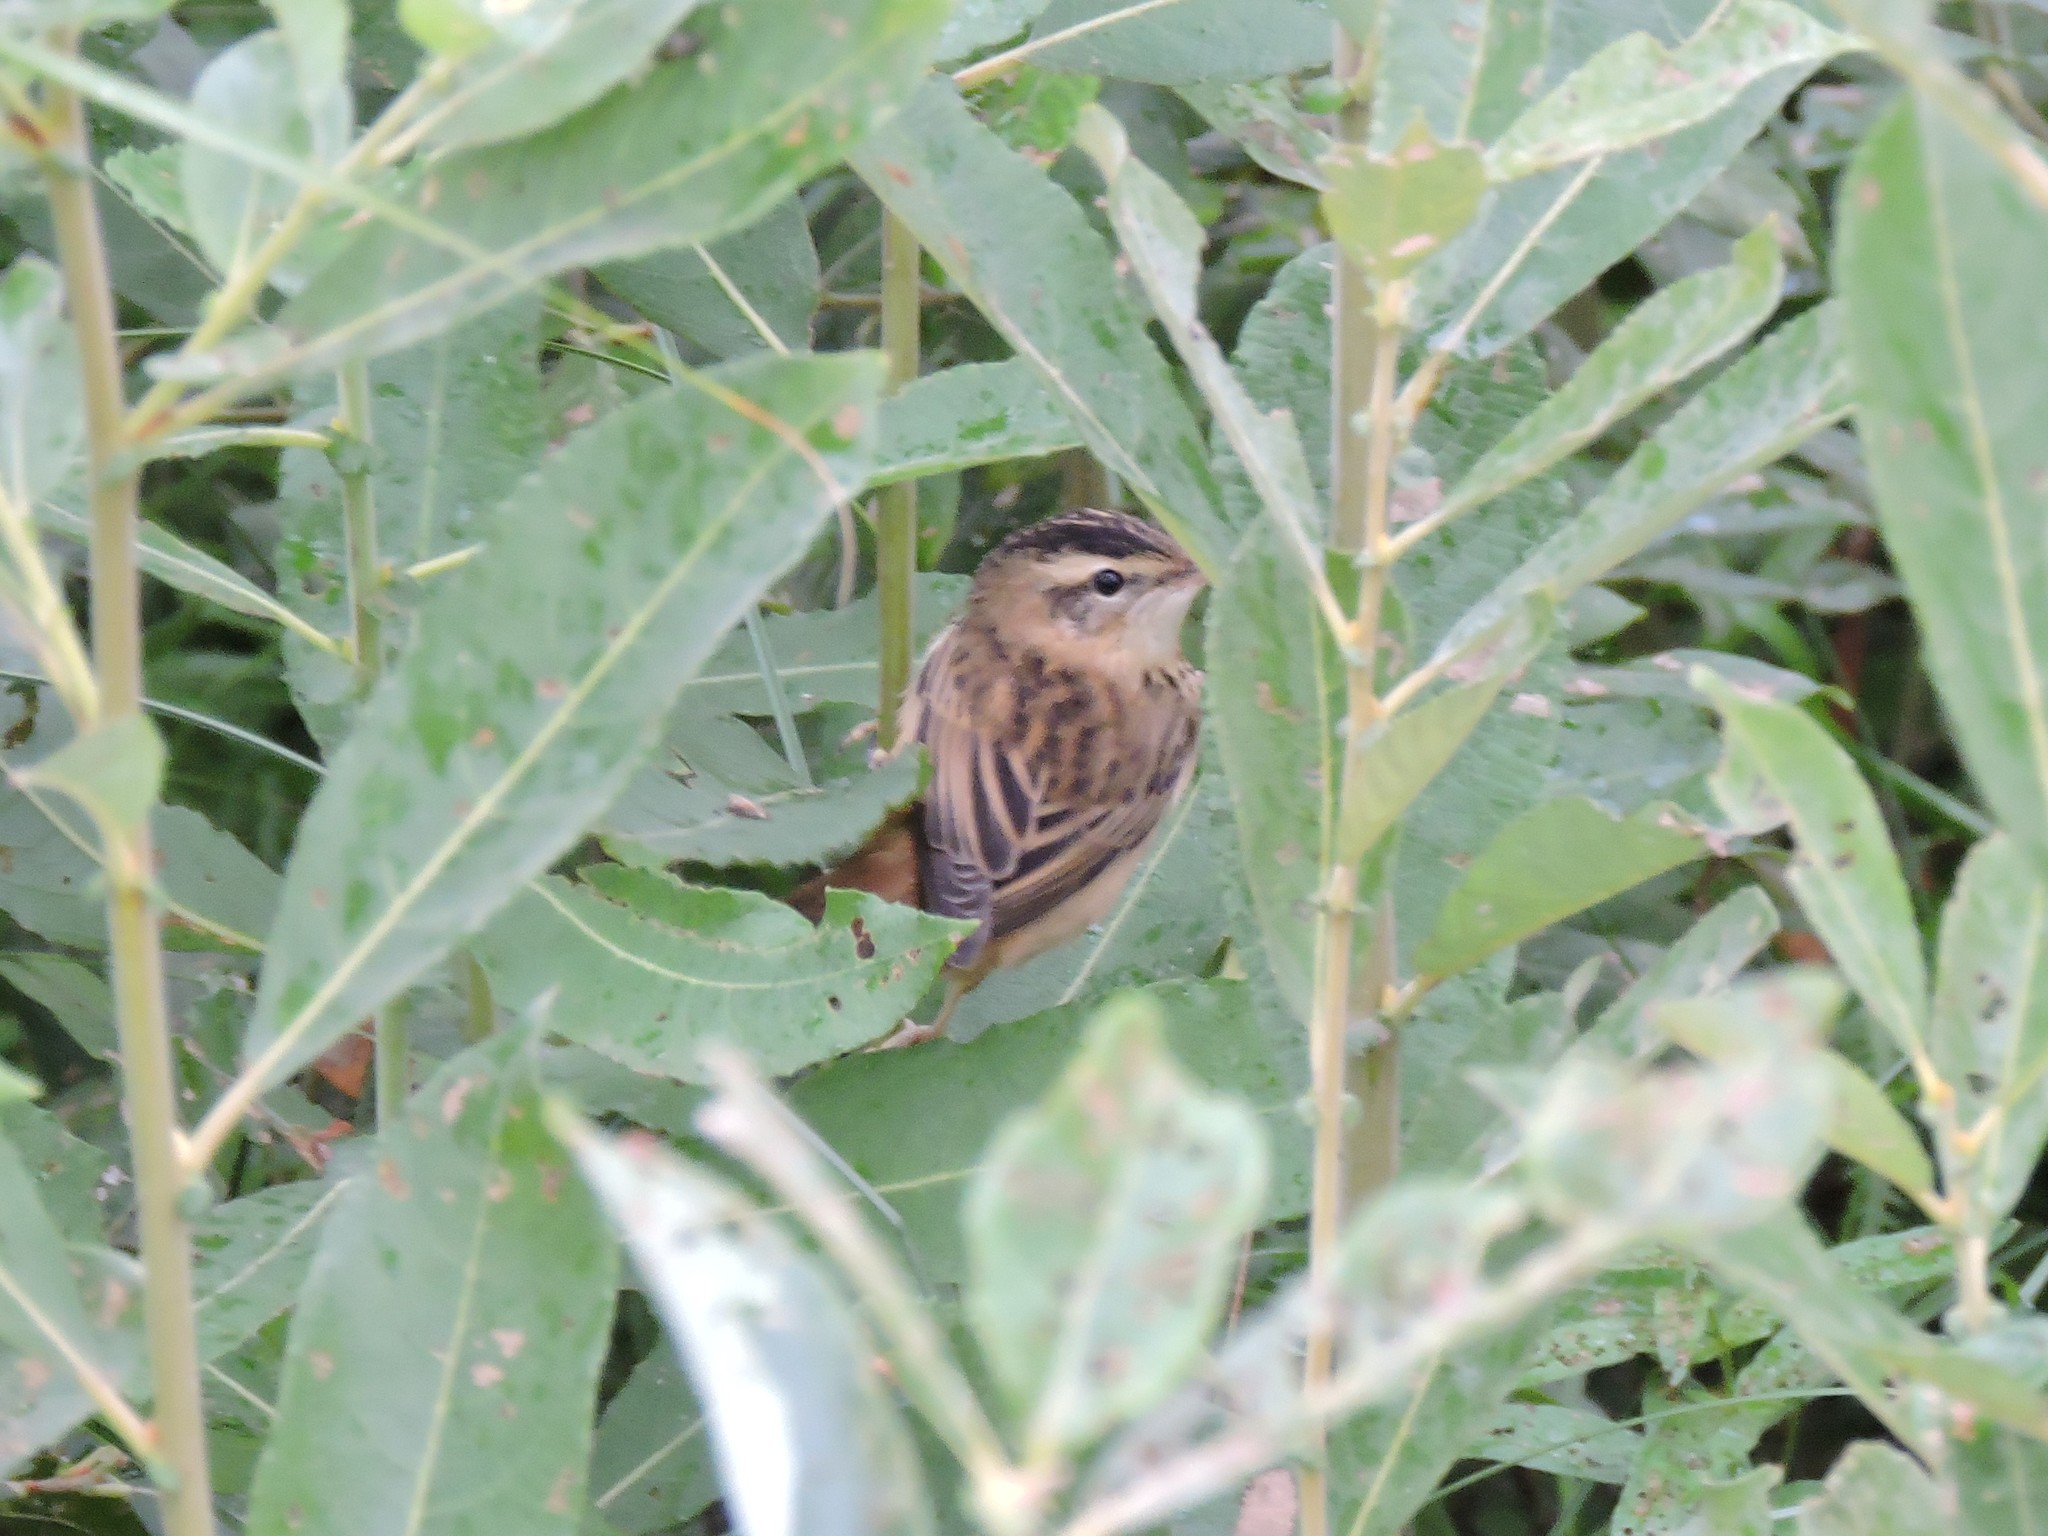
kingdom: Animalia
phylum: Chordata
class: Aves
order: Passeriformes
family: Acrocephalidae
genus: Acrocephalus
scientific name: Acrocephalus schoenobaenus
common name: Sedge warbler
